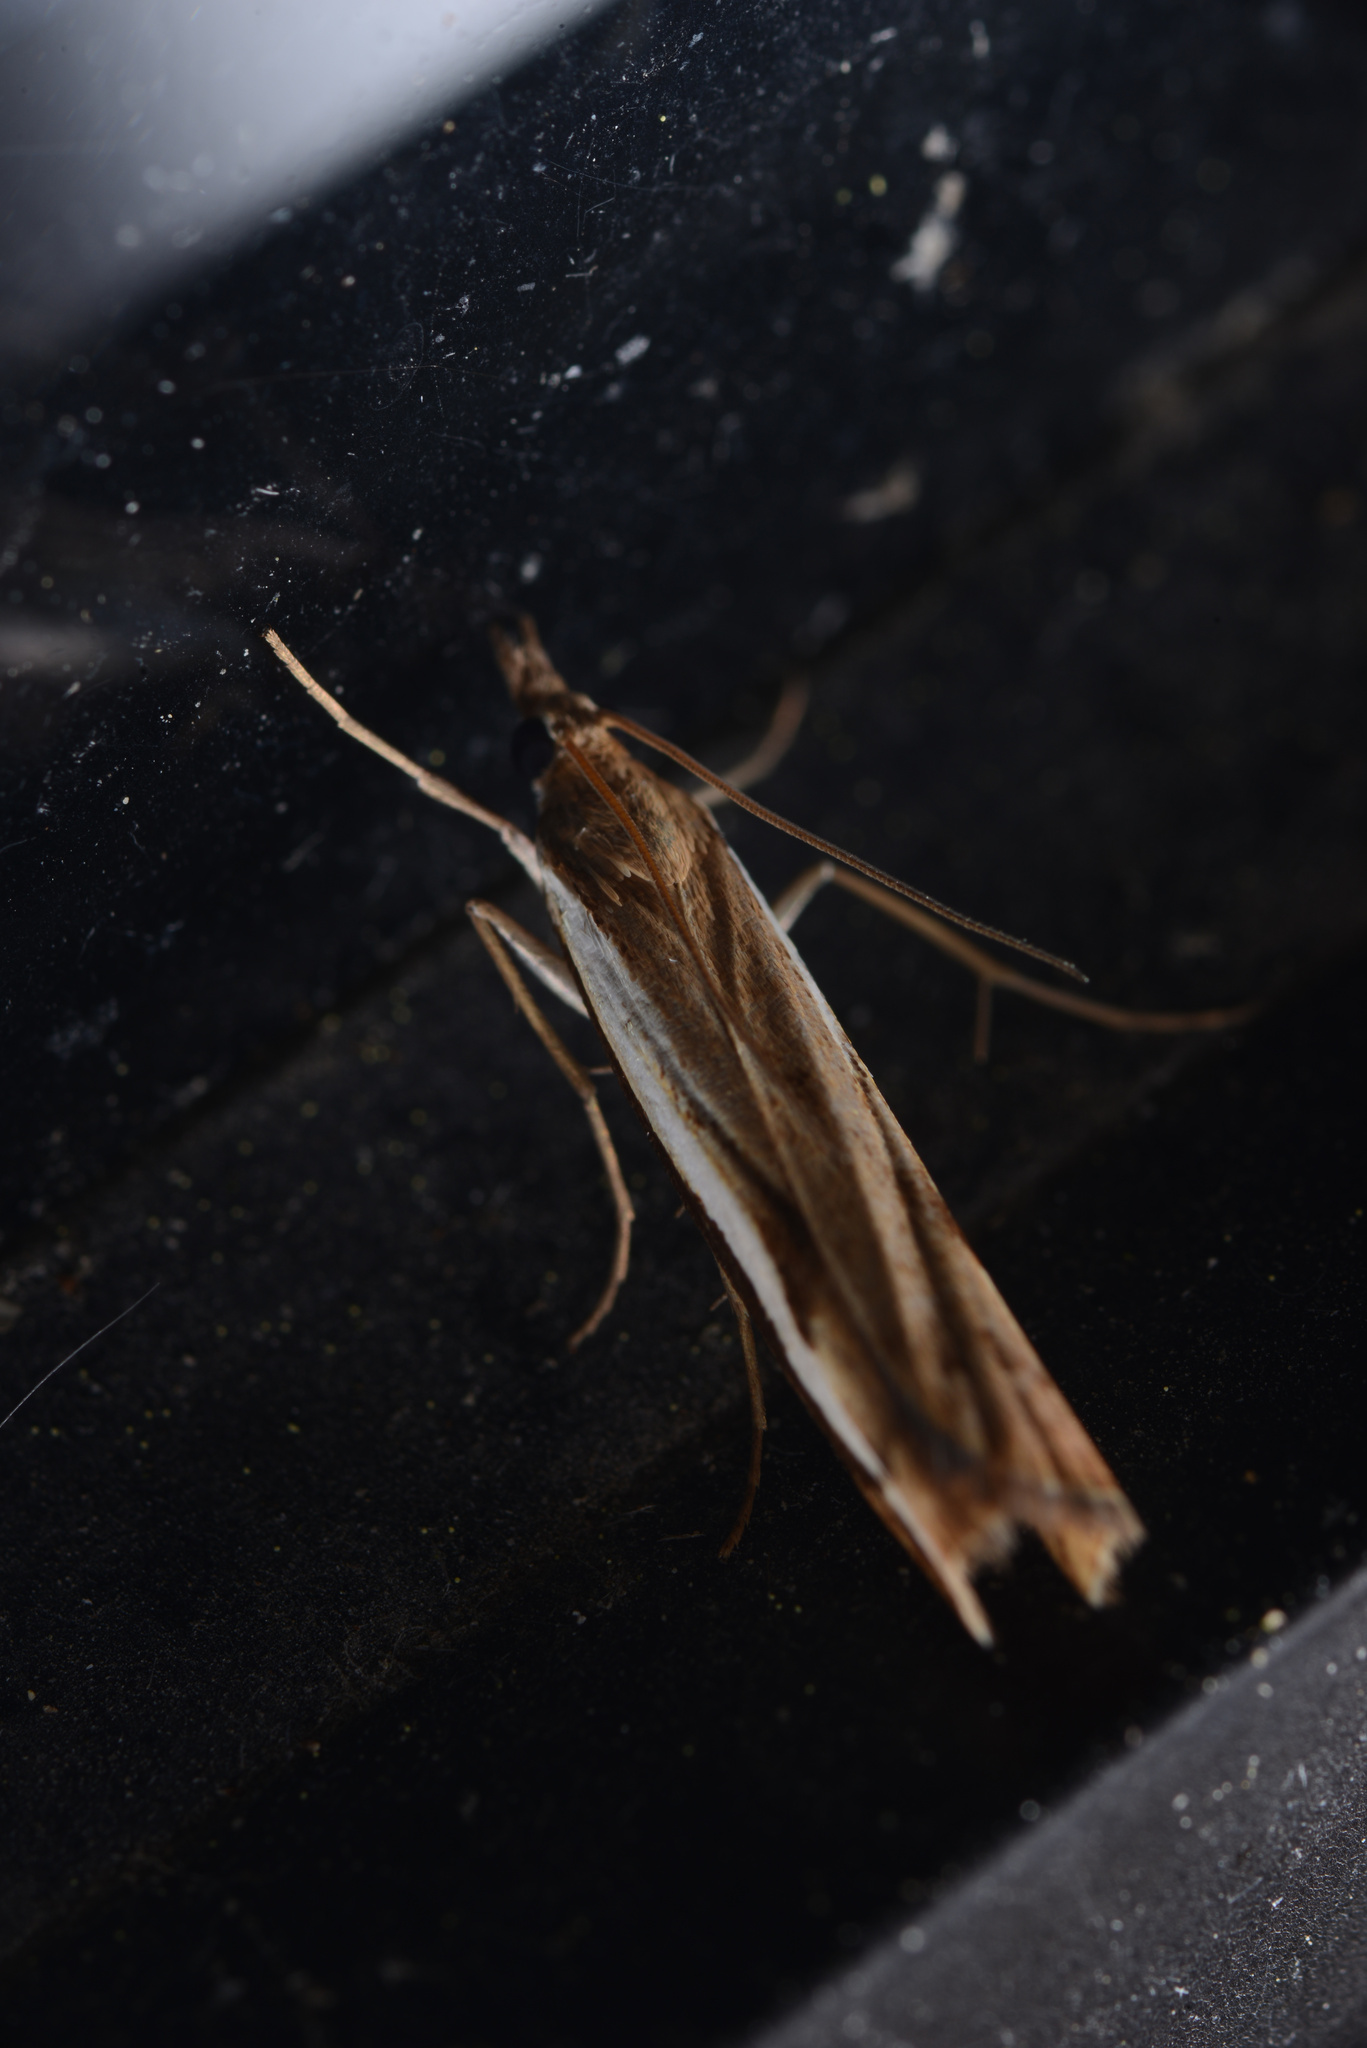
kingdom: Animalia
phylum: Arthropoda
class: Insecta
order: Lepidoptera
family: Crambidae
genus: Orocrambus
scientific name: Orocrambus flexuosellus
